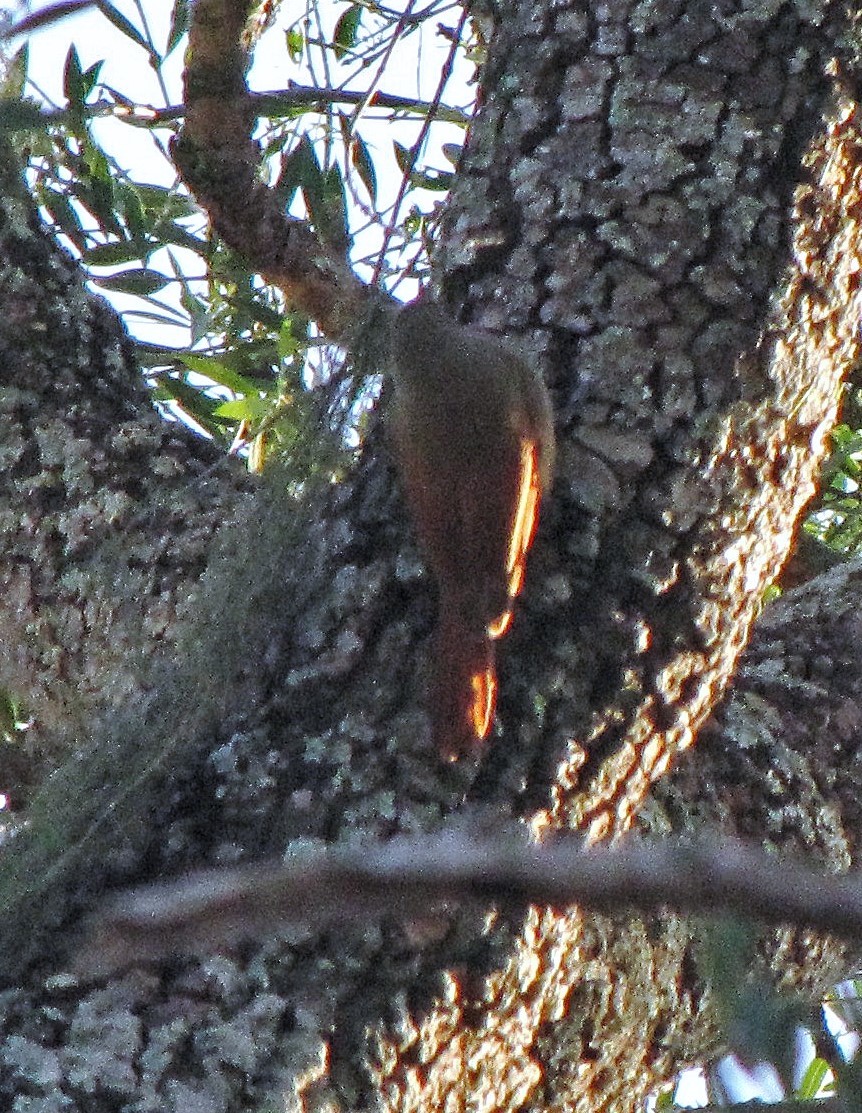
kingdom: Animalia
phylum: Chordata
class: Aves
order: Passeriformes
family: Furnariidae
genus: Sittasomus
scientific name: Sittasomus griseicapillus
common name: Olivaceous woodcreeper
